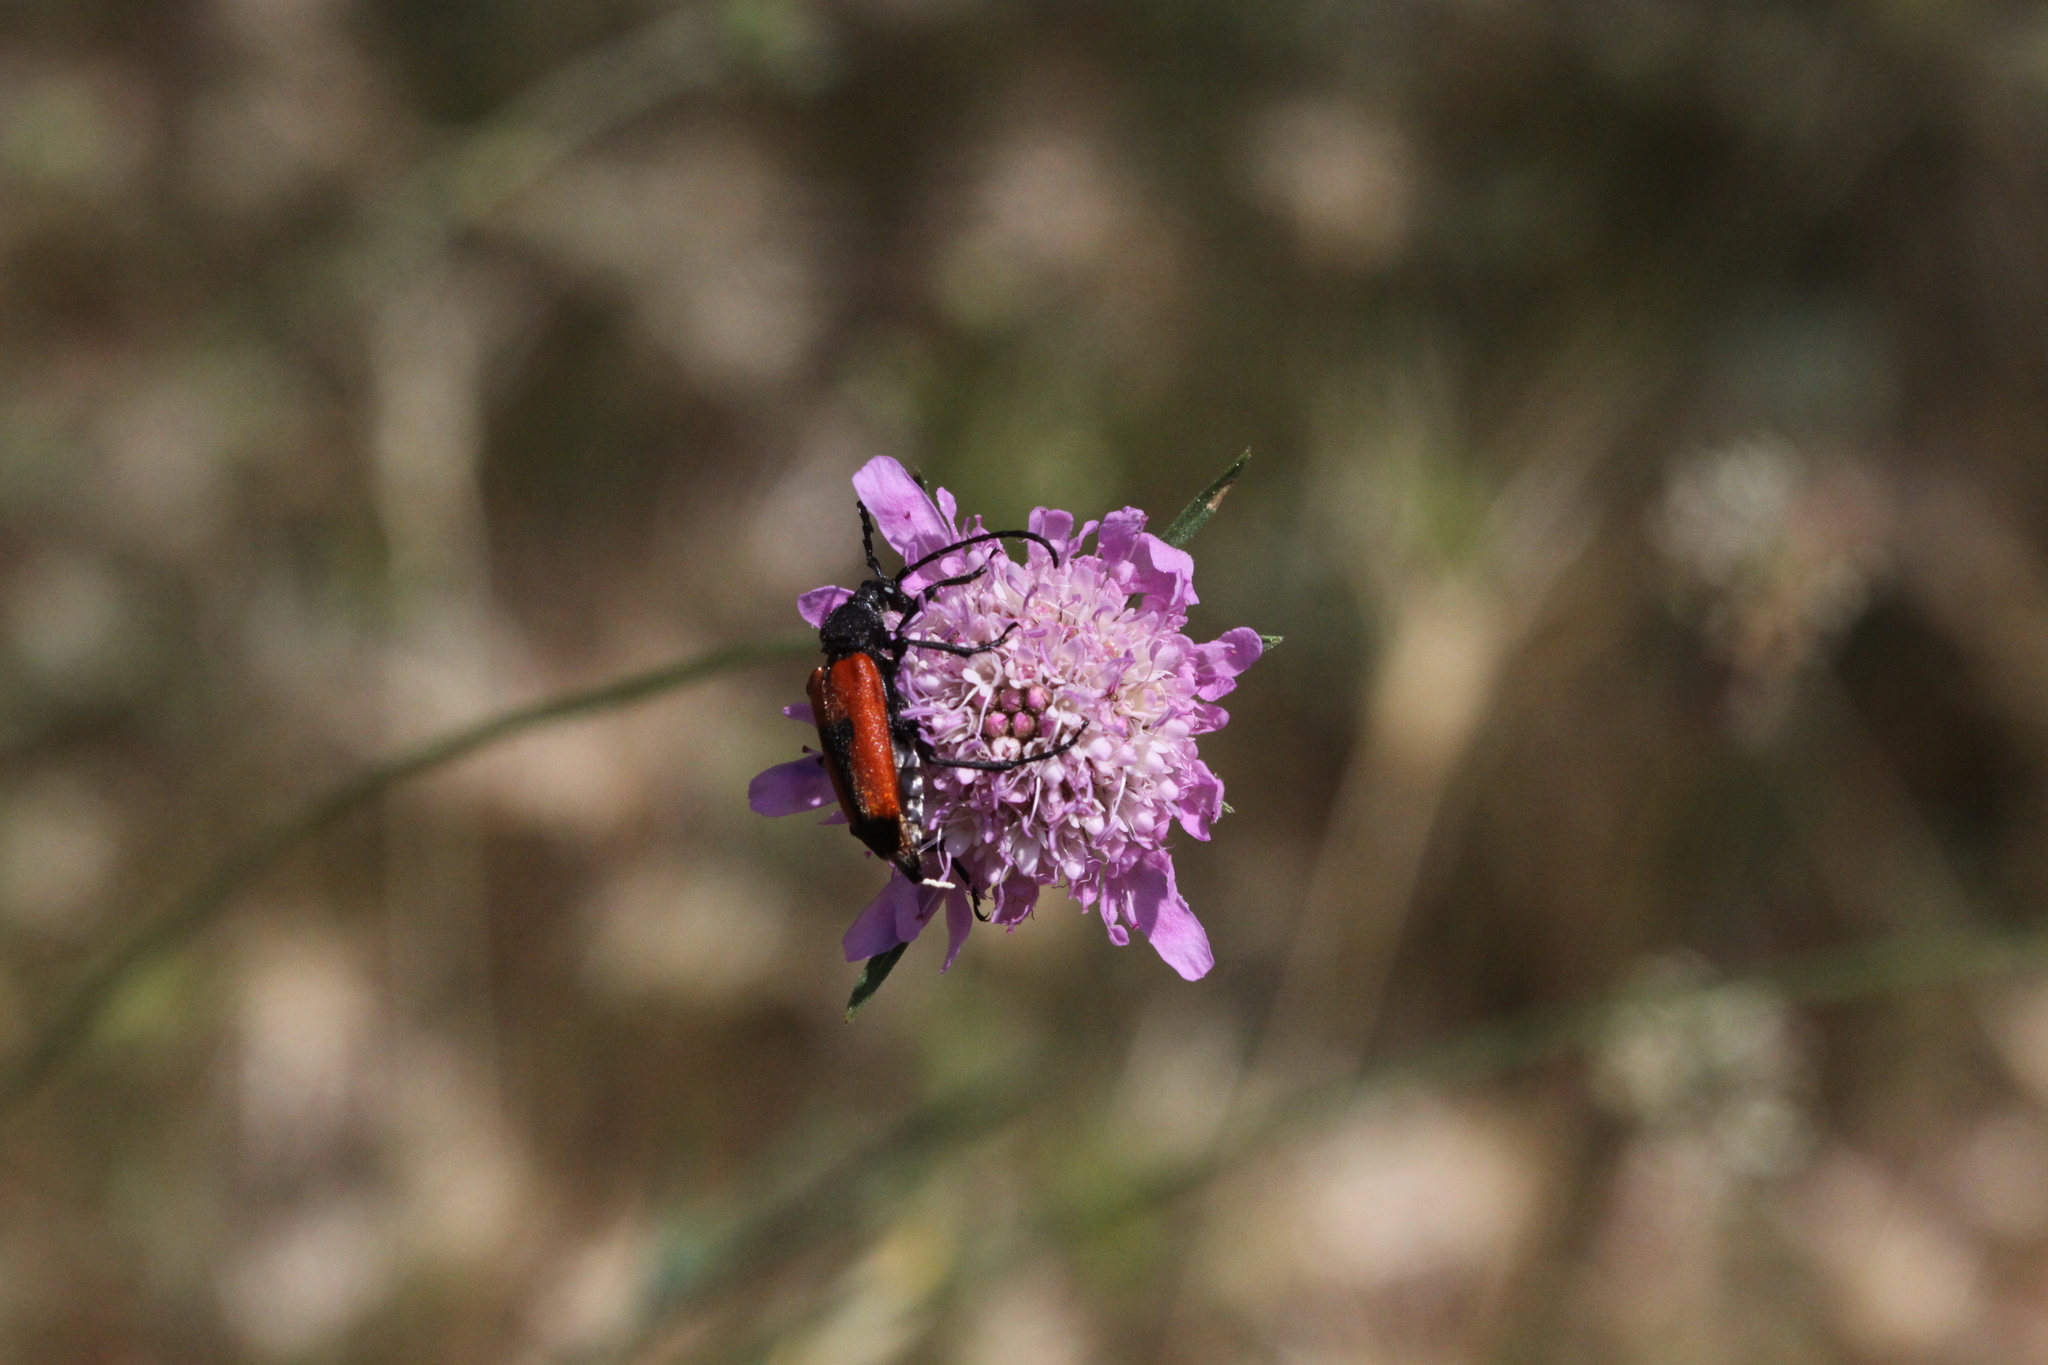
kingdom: Animalia
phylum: Arthropoda
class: Insecta
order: Coleoptera
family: Cerambycidae
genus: Stictoleptura
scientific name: Stictoleptura cordigera
